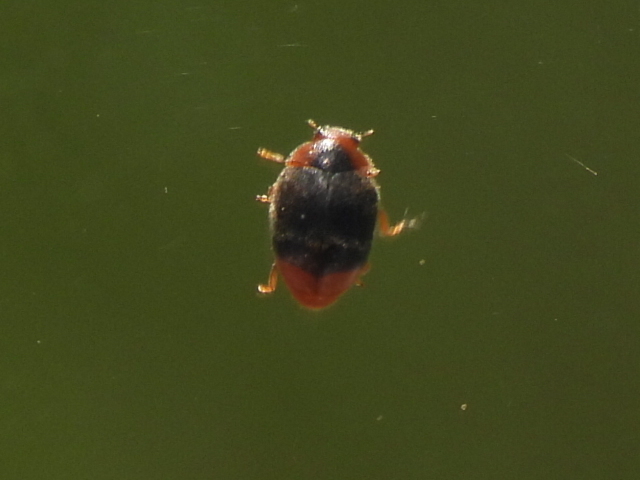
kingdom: Animalia
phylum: Arthropoda
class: Insecta
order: Coleoptera
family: Coccinellidae
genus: Scymnus
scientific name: Scymnus louisianae
